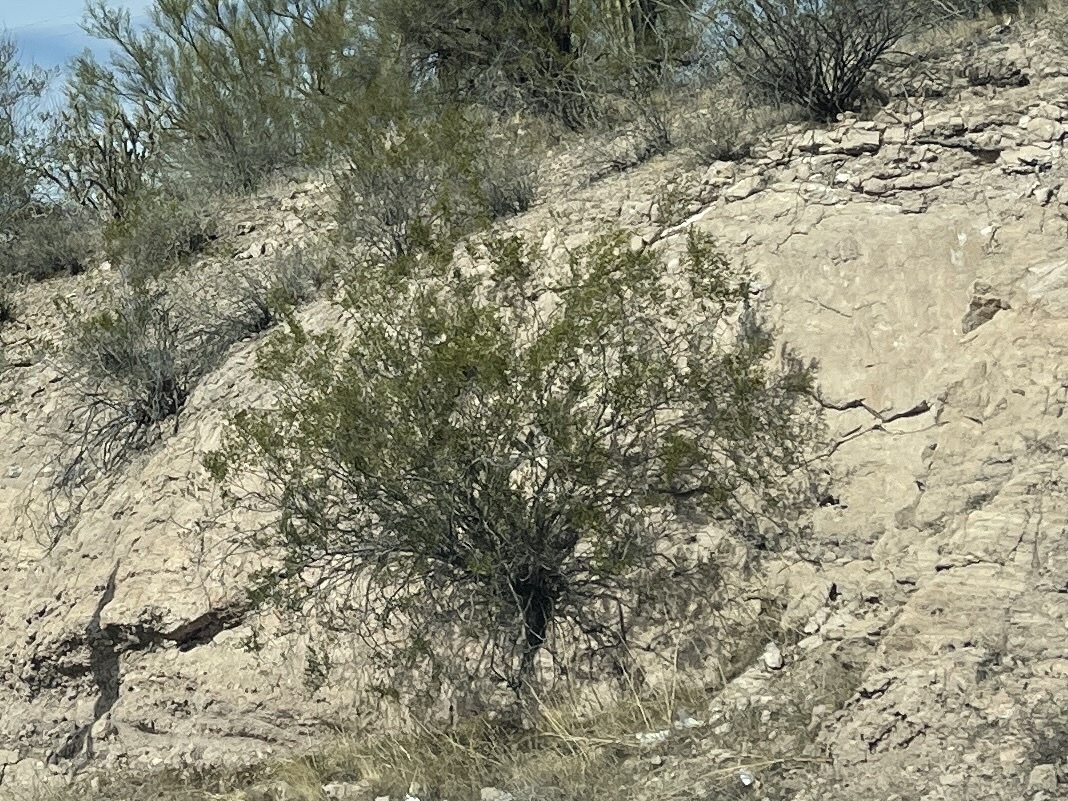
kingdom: Plantae
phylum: Tracheophyta
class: Magnoliopsida
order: Zygophyllales
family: Zygophyllaceae
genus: Larrea
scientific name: Larrea tridentata
